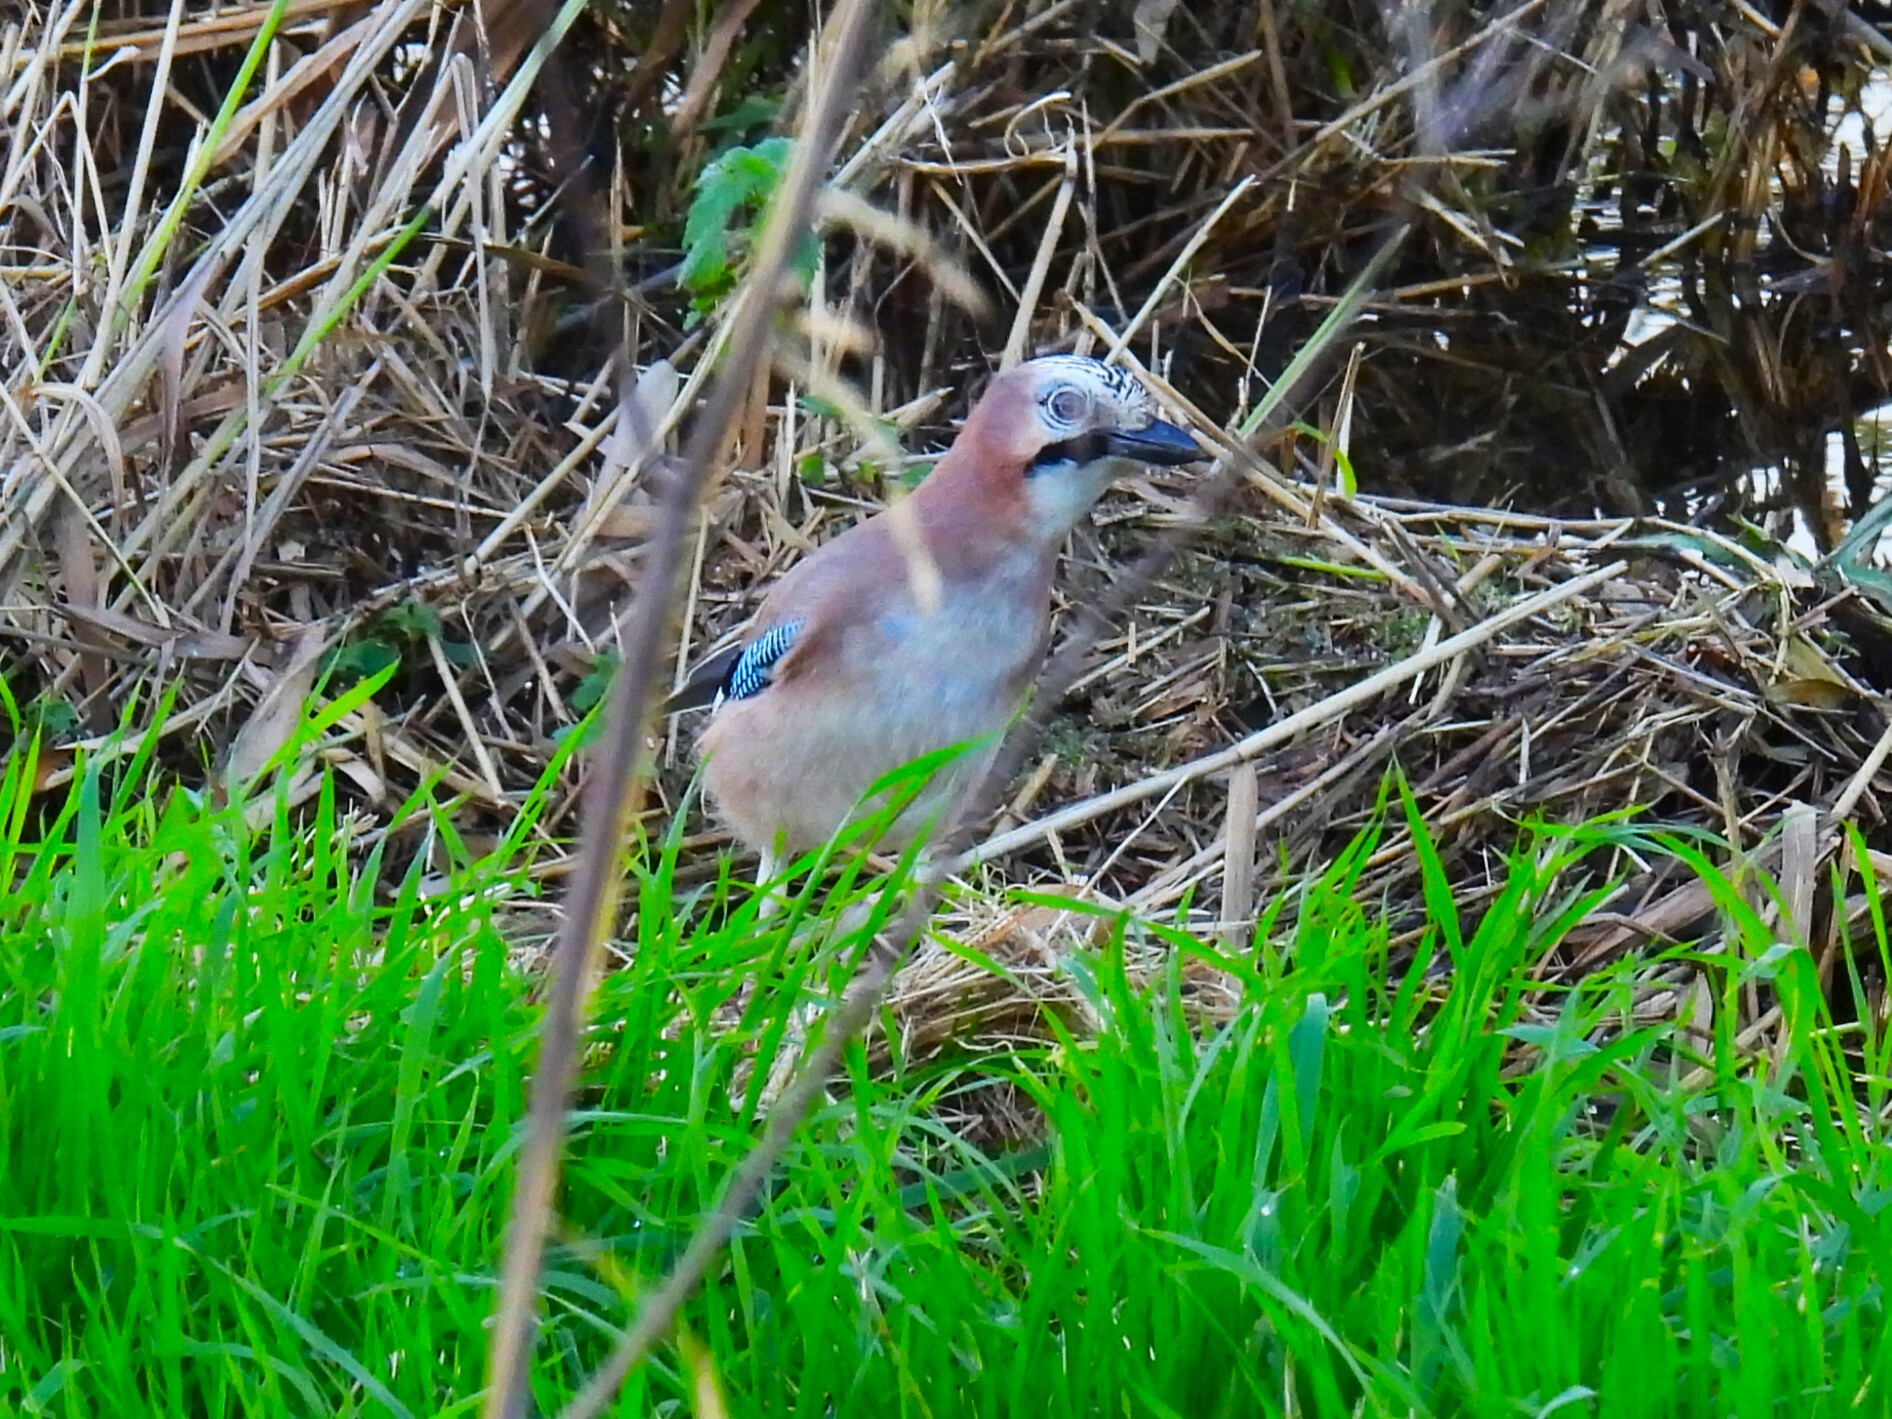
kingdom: Animalia
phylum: Chordata
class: Aves
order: Passeriformes
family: Corvidae
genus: Garrulus
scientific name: Garrulus glandarius
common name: Eurasian jay
